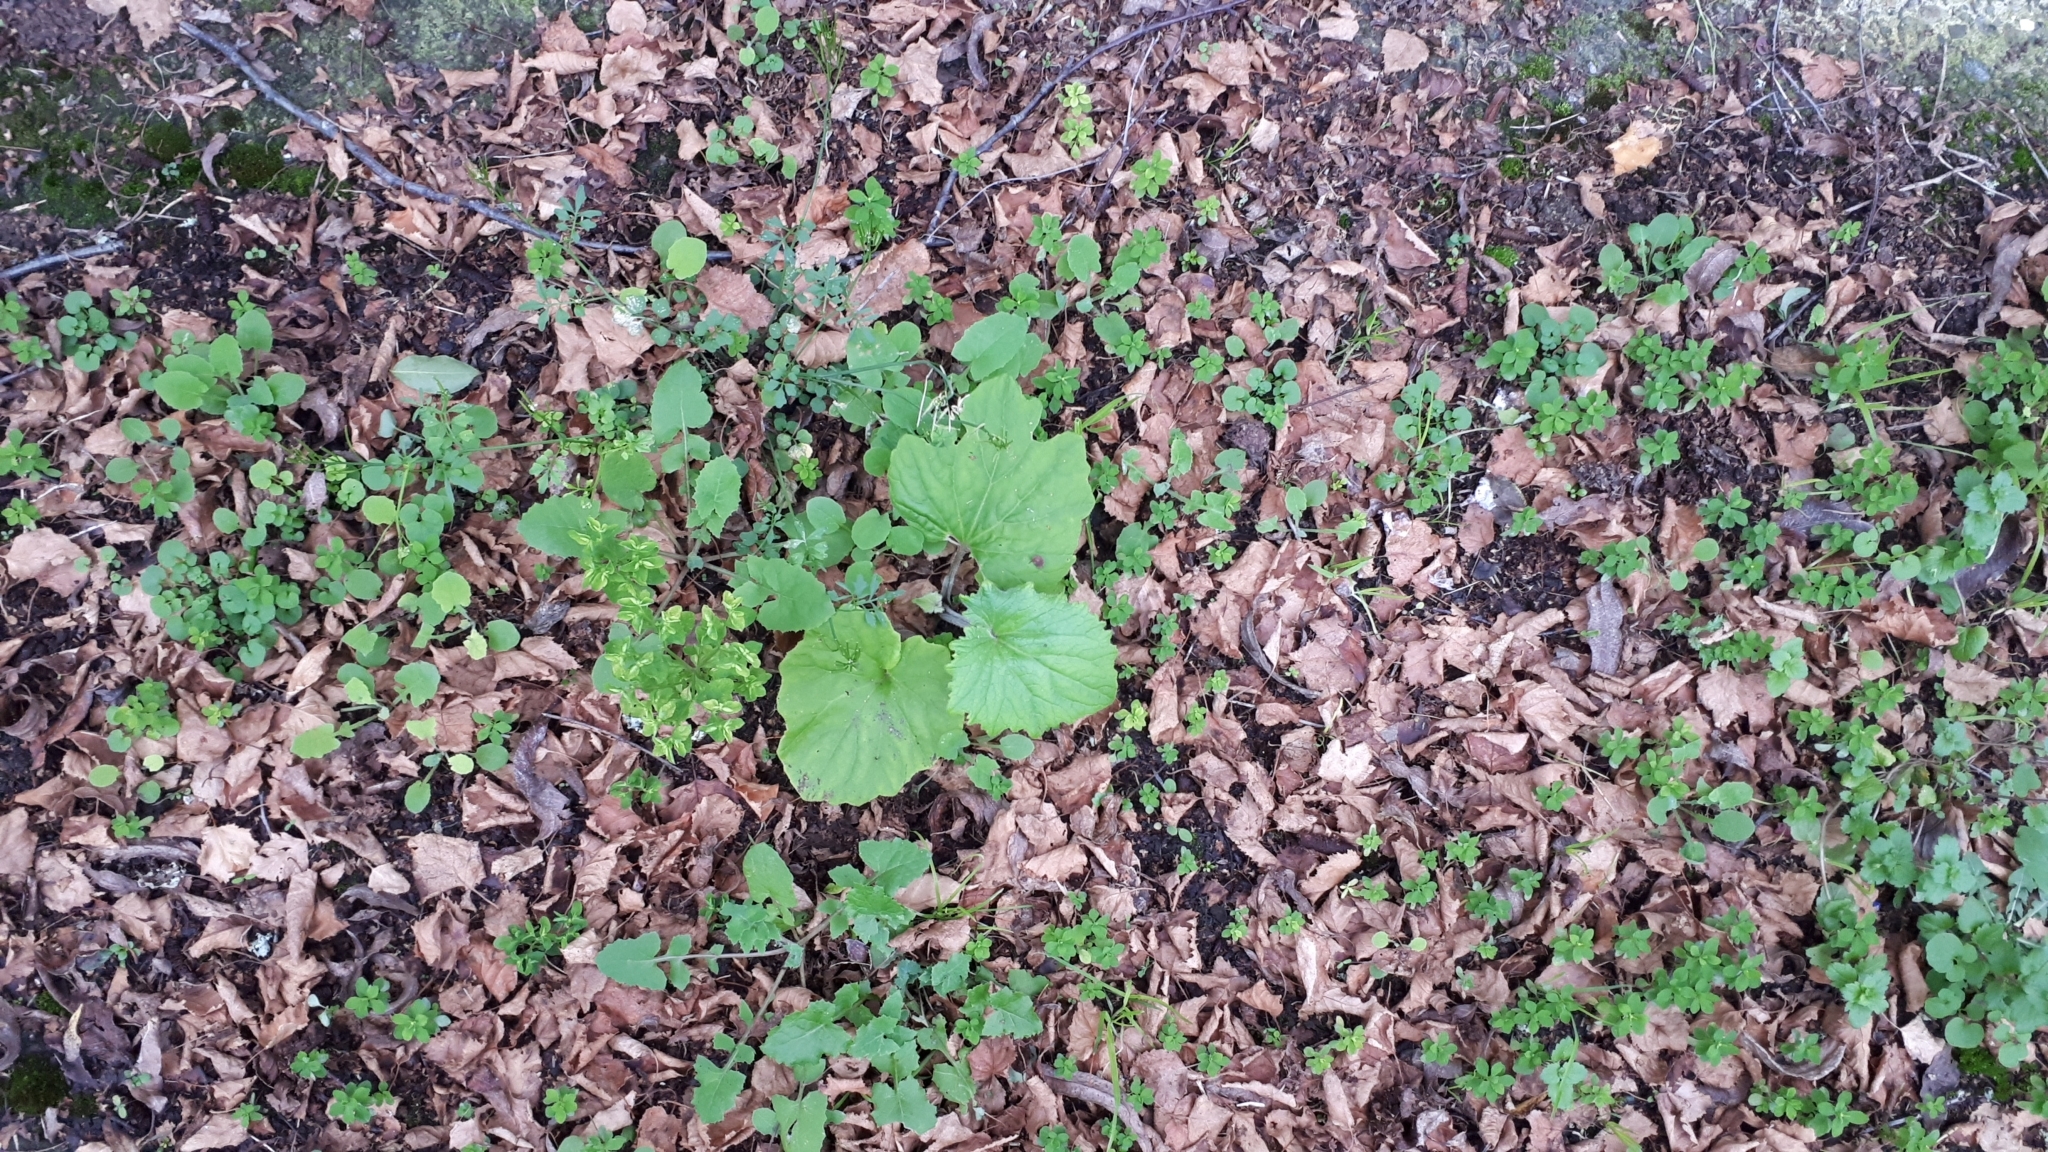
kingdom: Plantae
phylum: Tracheophyta
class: Magnoliopsida
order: Asterales
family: Asteraceae
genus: Pericallis
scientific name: Pericallis hybrida
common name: Cineraria
